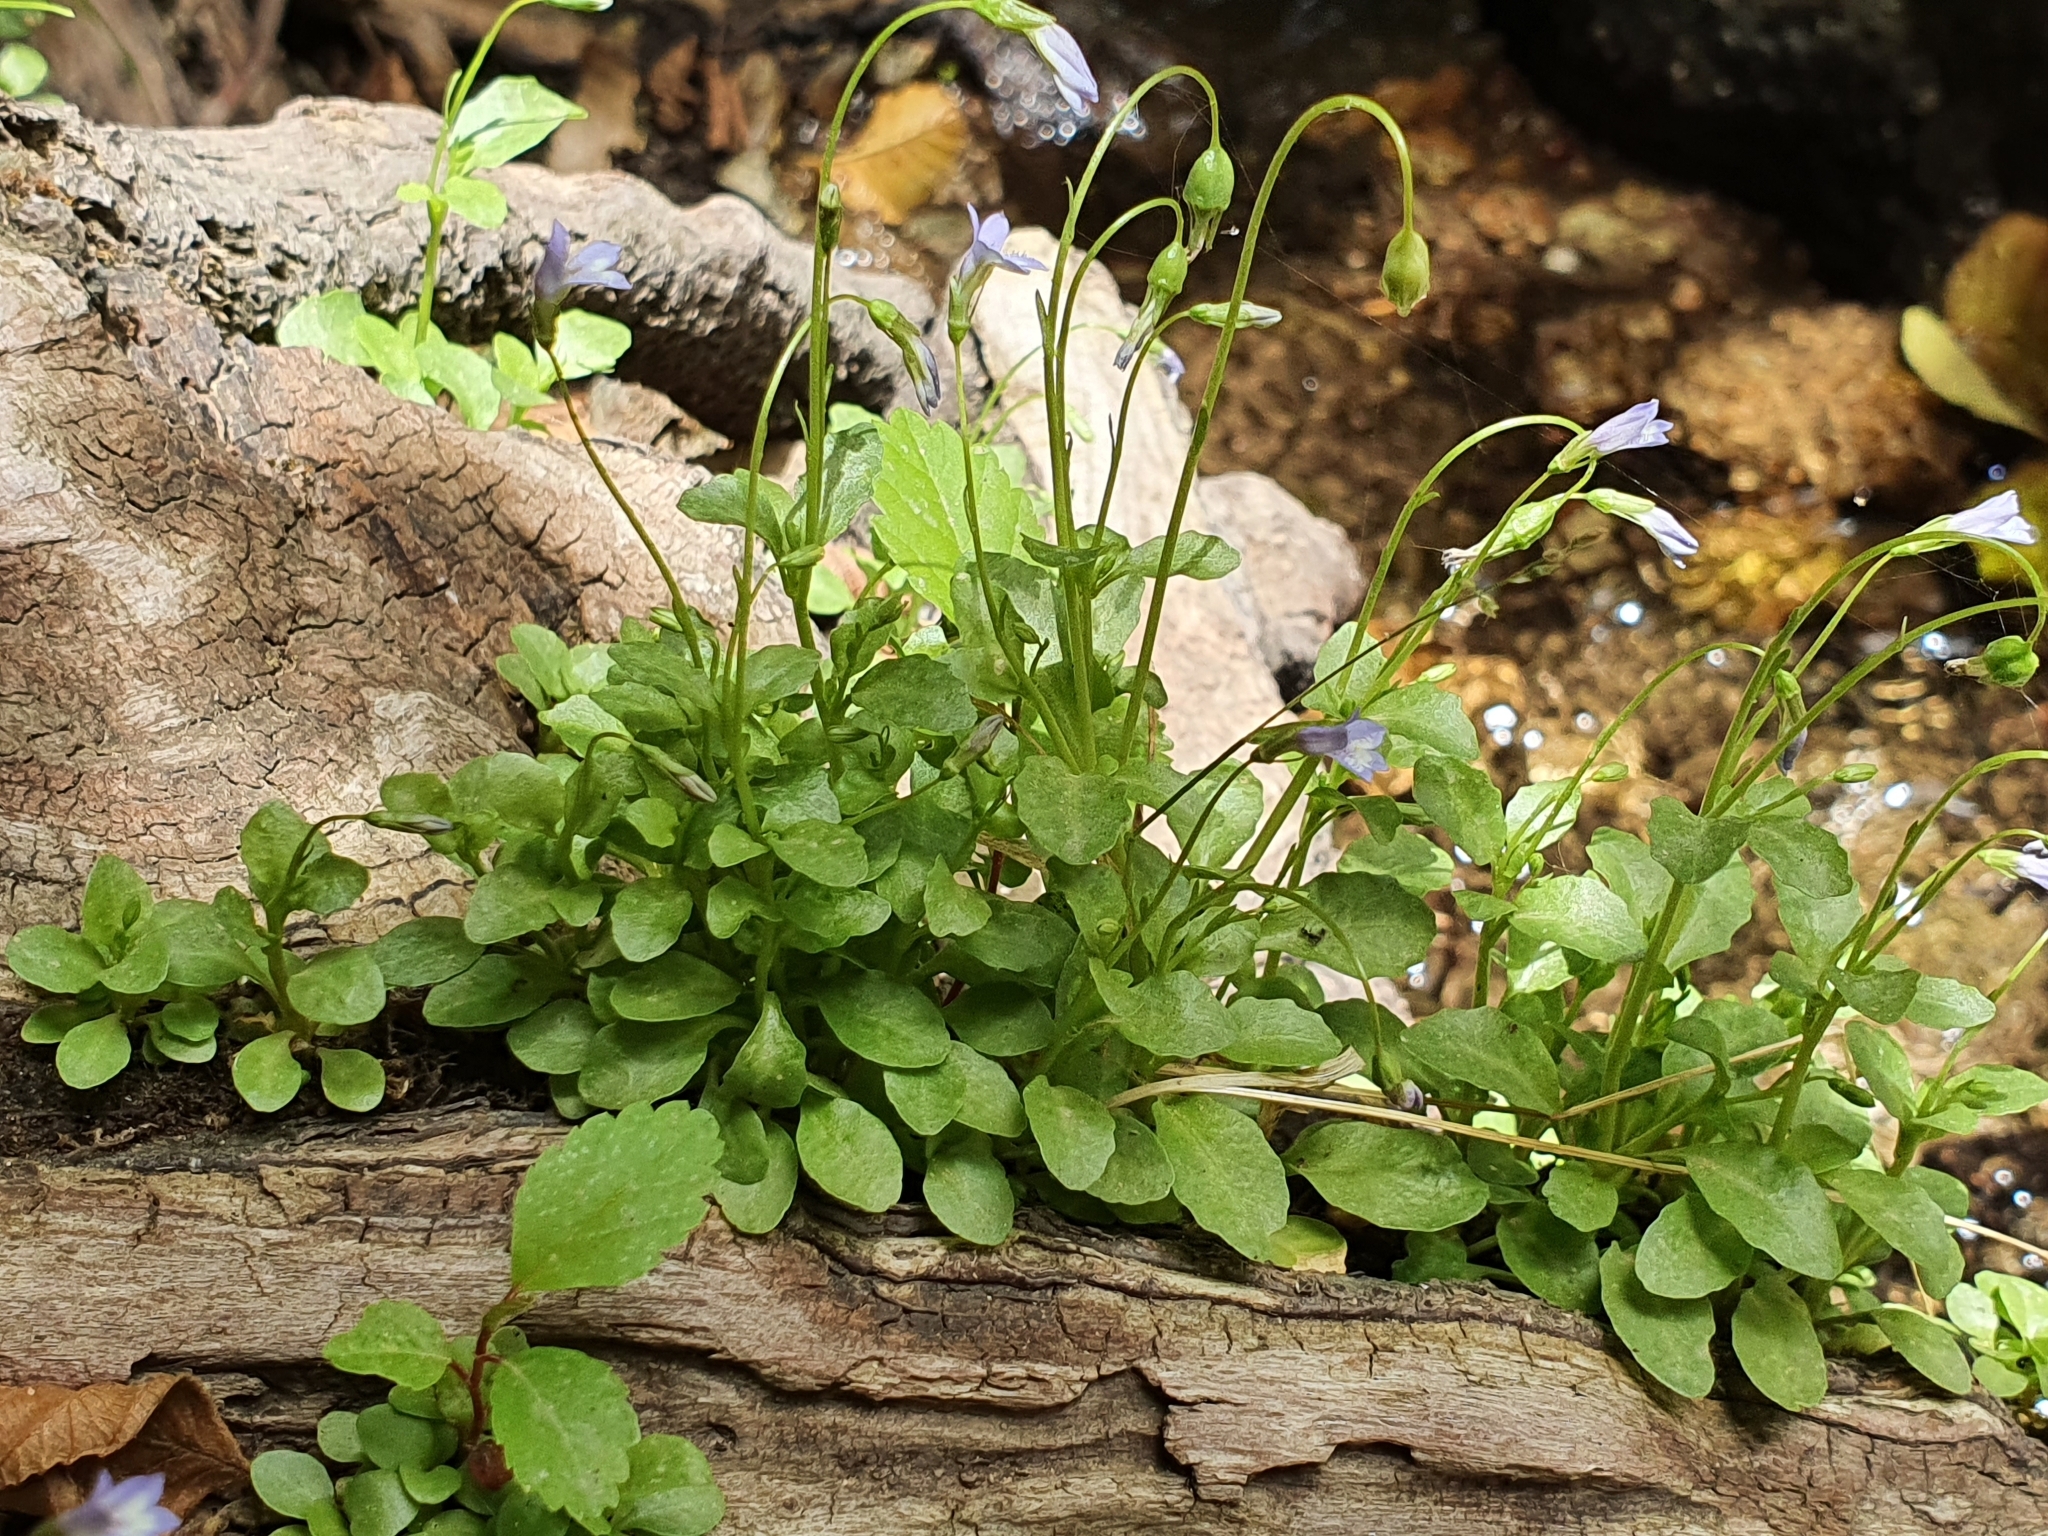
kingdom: Plantae
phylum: Tracheophyta
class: Magnoliopsida
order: Asterales
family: Campanulaceae
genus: Solenopsis
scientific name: Solenopsis laurentia
